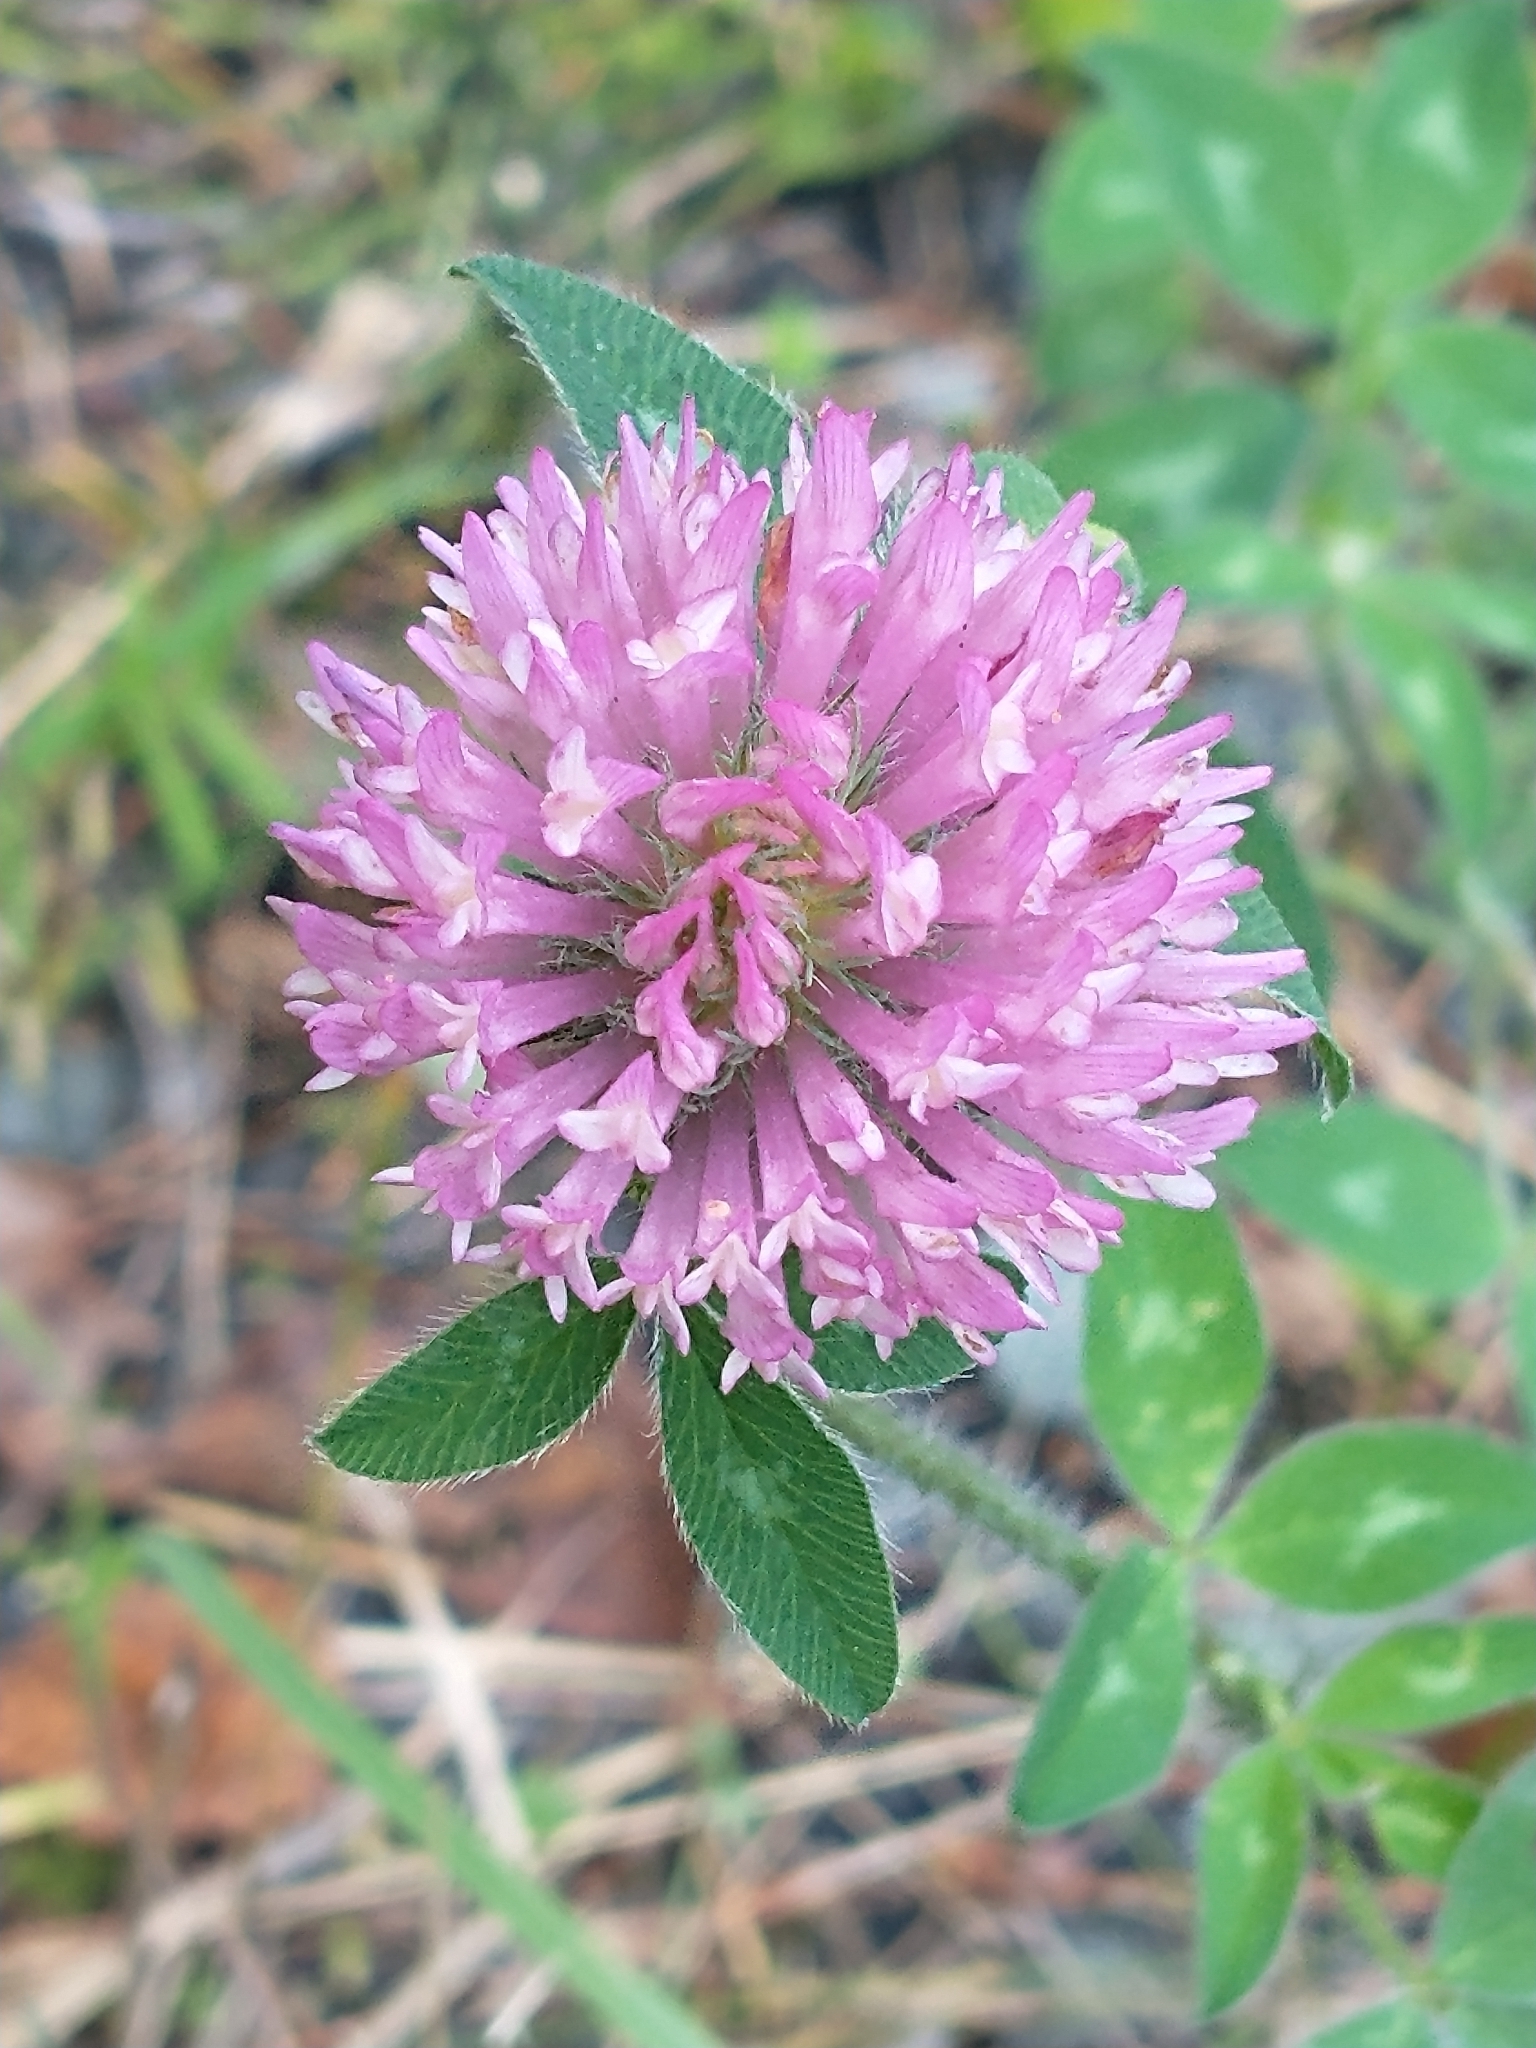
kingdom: Plantae
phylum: Tracheophyta
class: Magnoliopsida
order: Fabales
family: Fabaceae
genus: Trifolium
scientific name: Trifolium pratense
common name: Red clover
